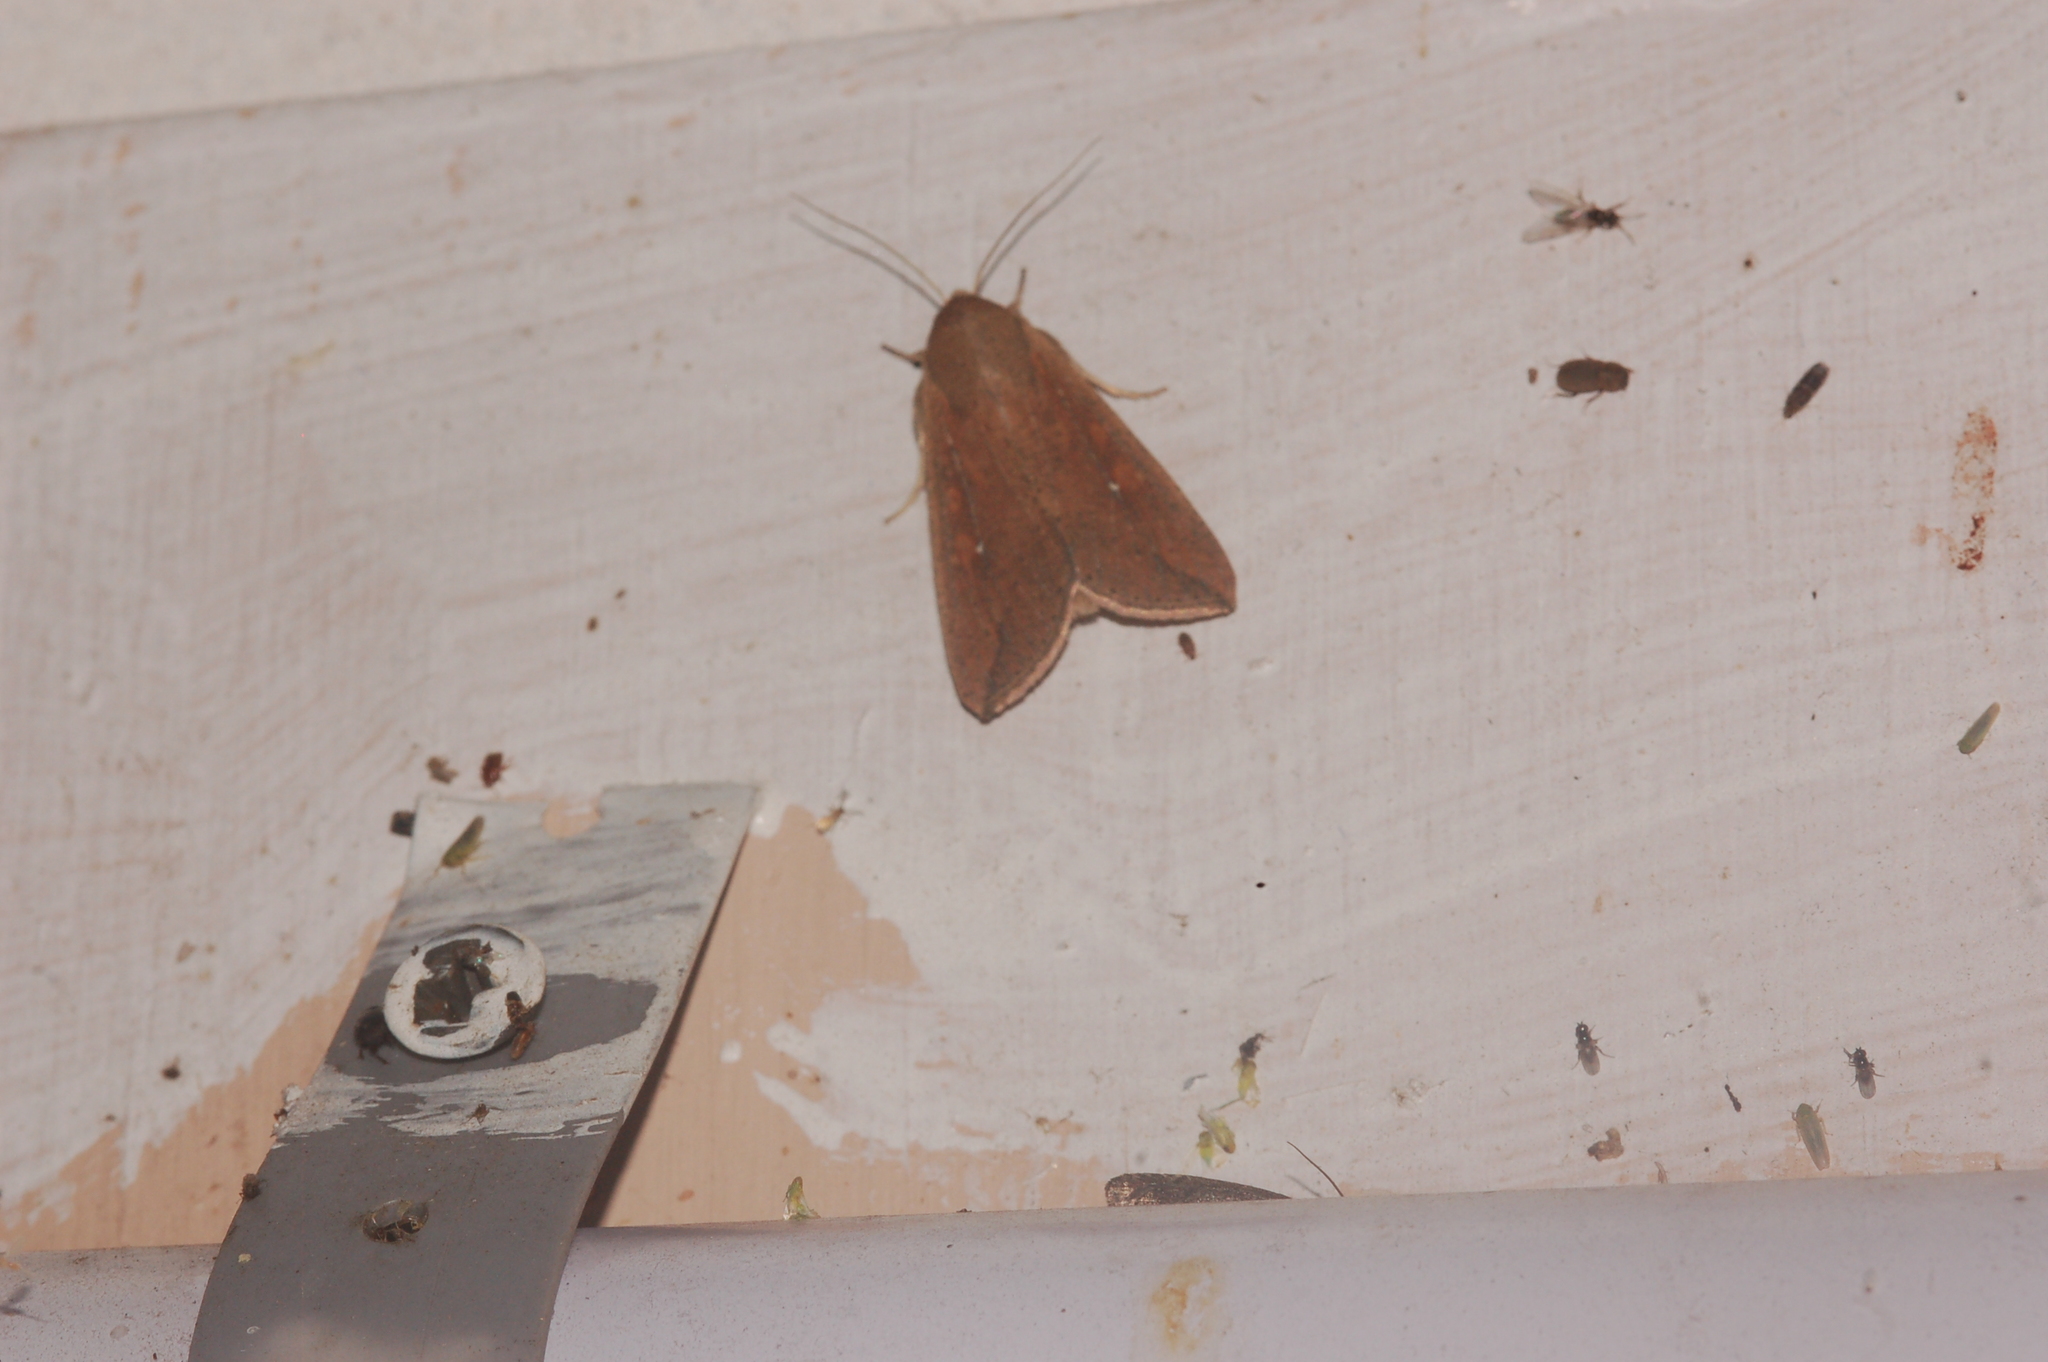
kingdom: Animalia
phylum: Arthropoda
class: Insecta
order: Lepidoptera
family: Noctuidae
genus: Mythimna
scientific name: Mythimna unipuncta
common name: White-speck
